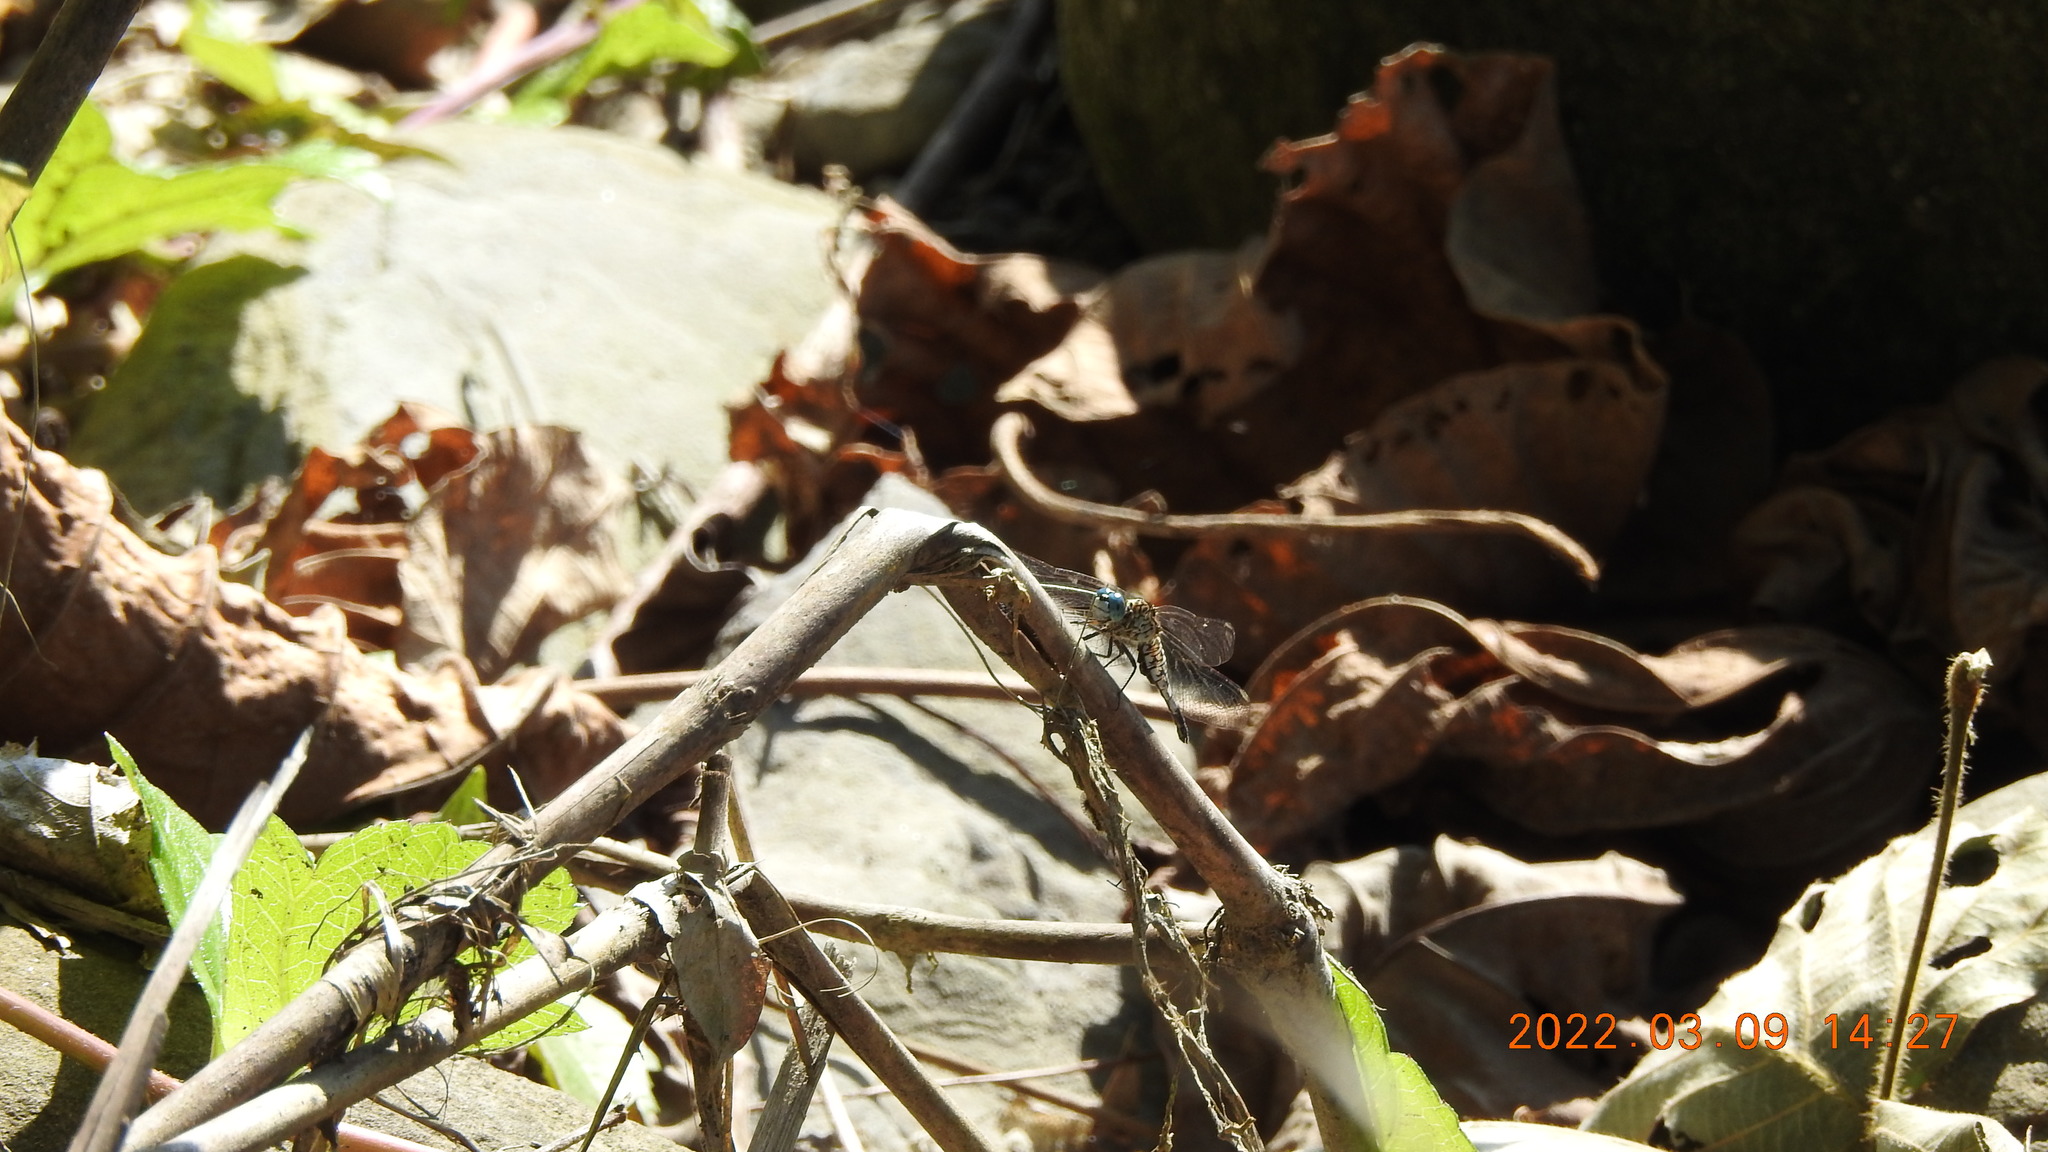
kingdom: Animalia
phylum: Arthropoda
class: Insecta
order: Odonata
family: Libellulidae
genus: Acisoma
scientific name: Acisoma panorpoides
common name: Asian pintail
